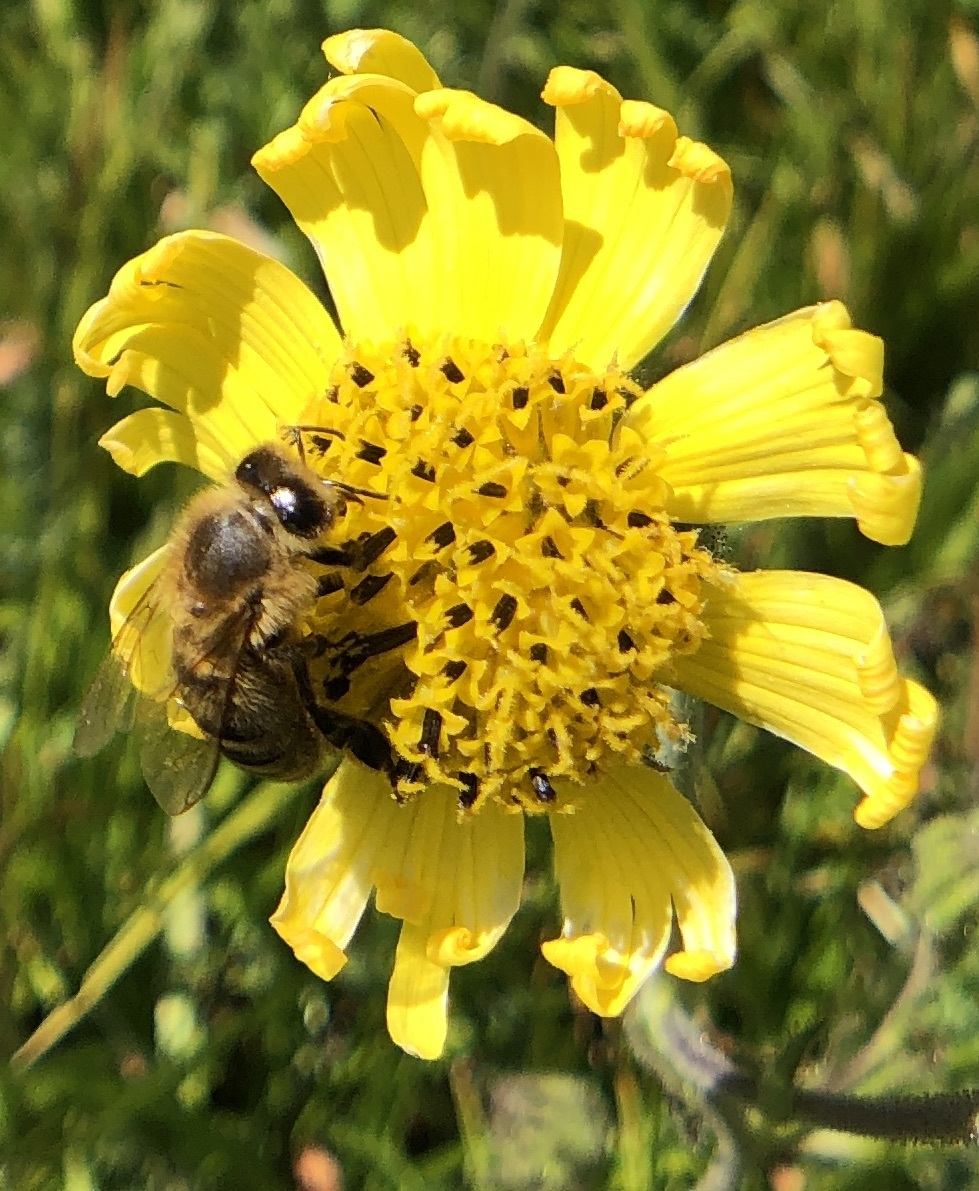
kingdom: Animalia
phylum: Arthropoda
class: Insecta
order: Hymenoptera
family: Apidae
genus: Apis
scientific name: Apis mellifera
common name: Honey bee
